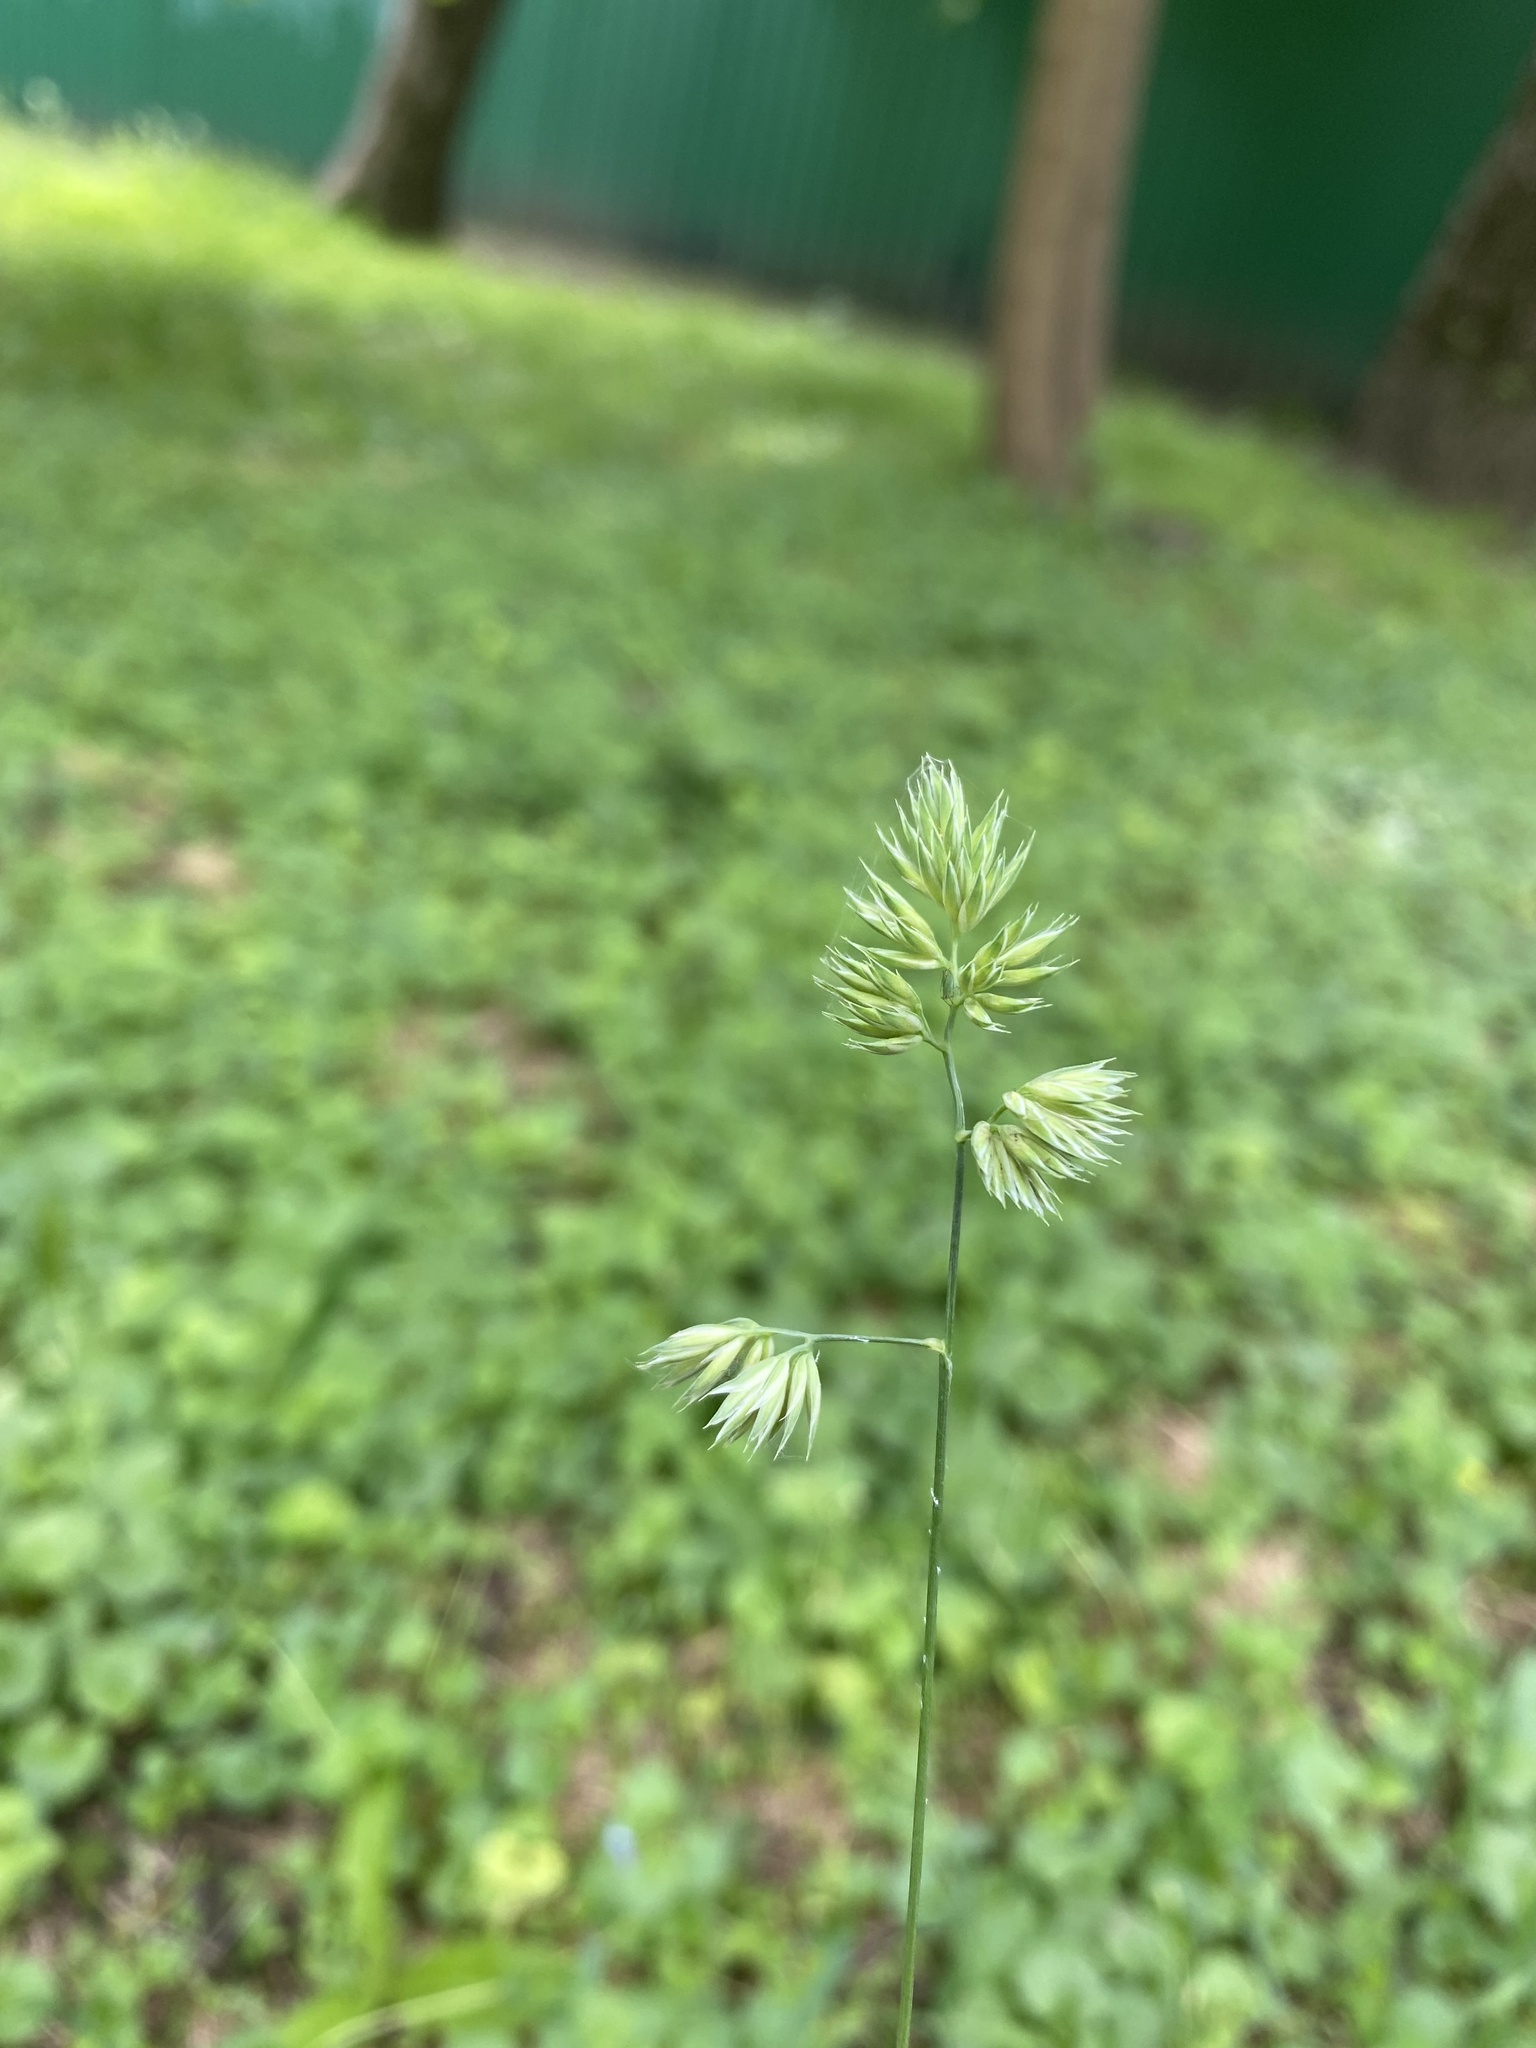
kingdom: Plantae
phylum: Tracheophyta
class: Liliopsida
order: Poales
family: Poaceae
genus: Dactylis
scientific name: Dactylis glomerata
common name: Orchardgrass
